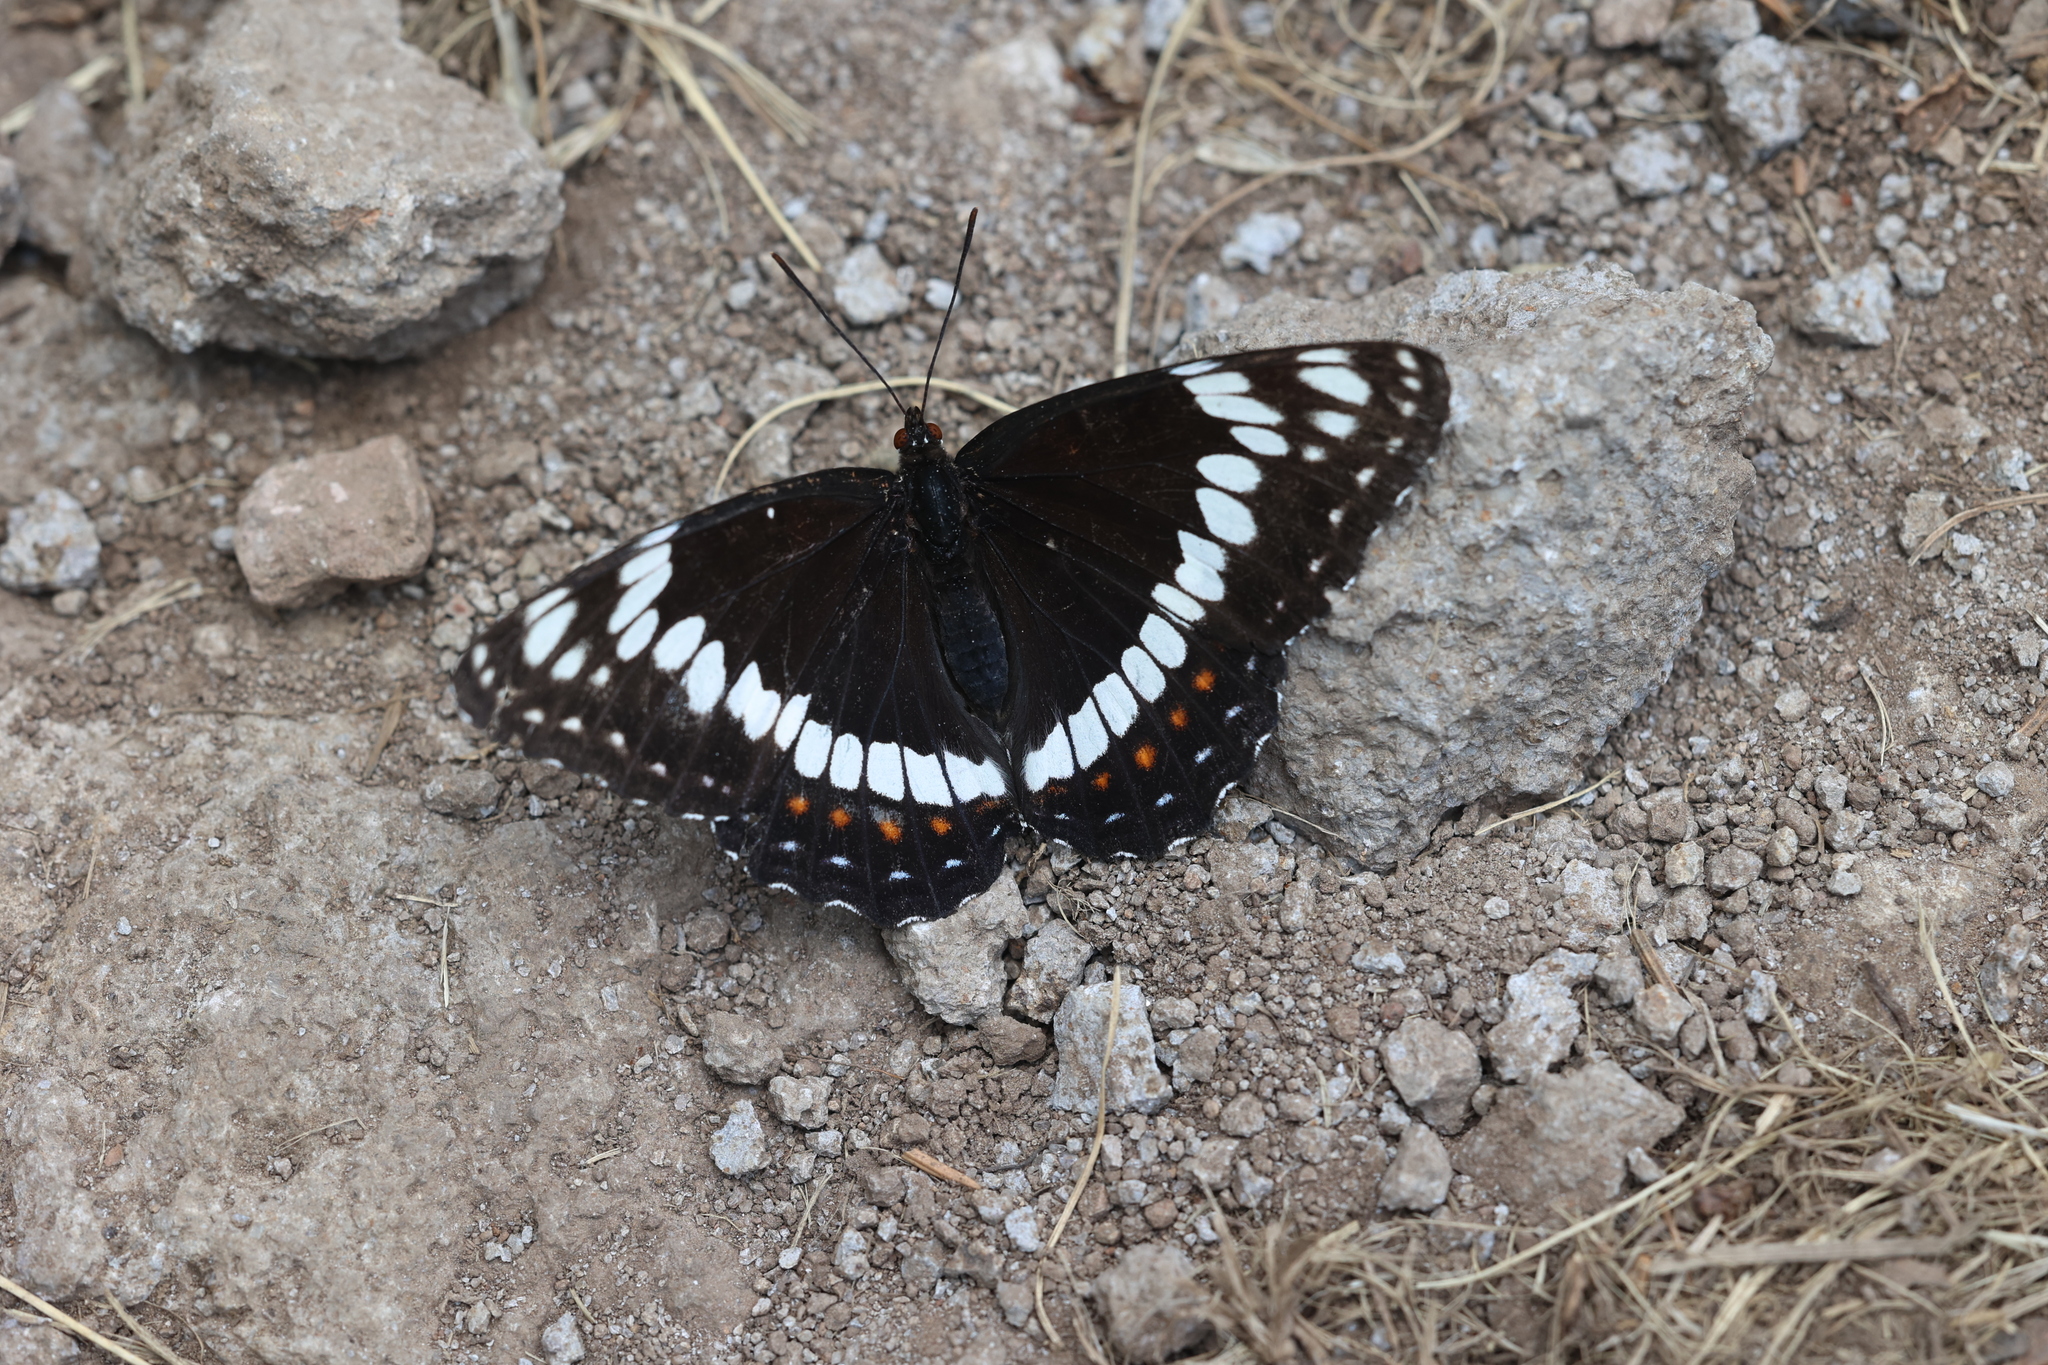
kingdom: Animalia
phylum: Arthropoda
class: Insecta
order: Lepidoptera
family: Nymphalidae
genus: Limenitis
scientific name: Limenitis weidemeyerii
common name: Weidemeyer's admiral
